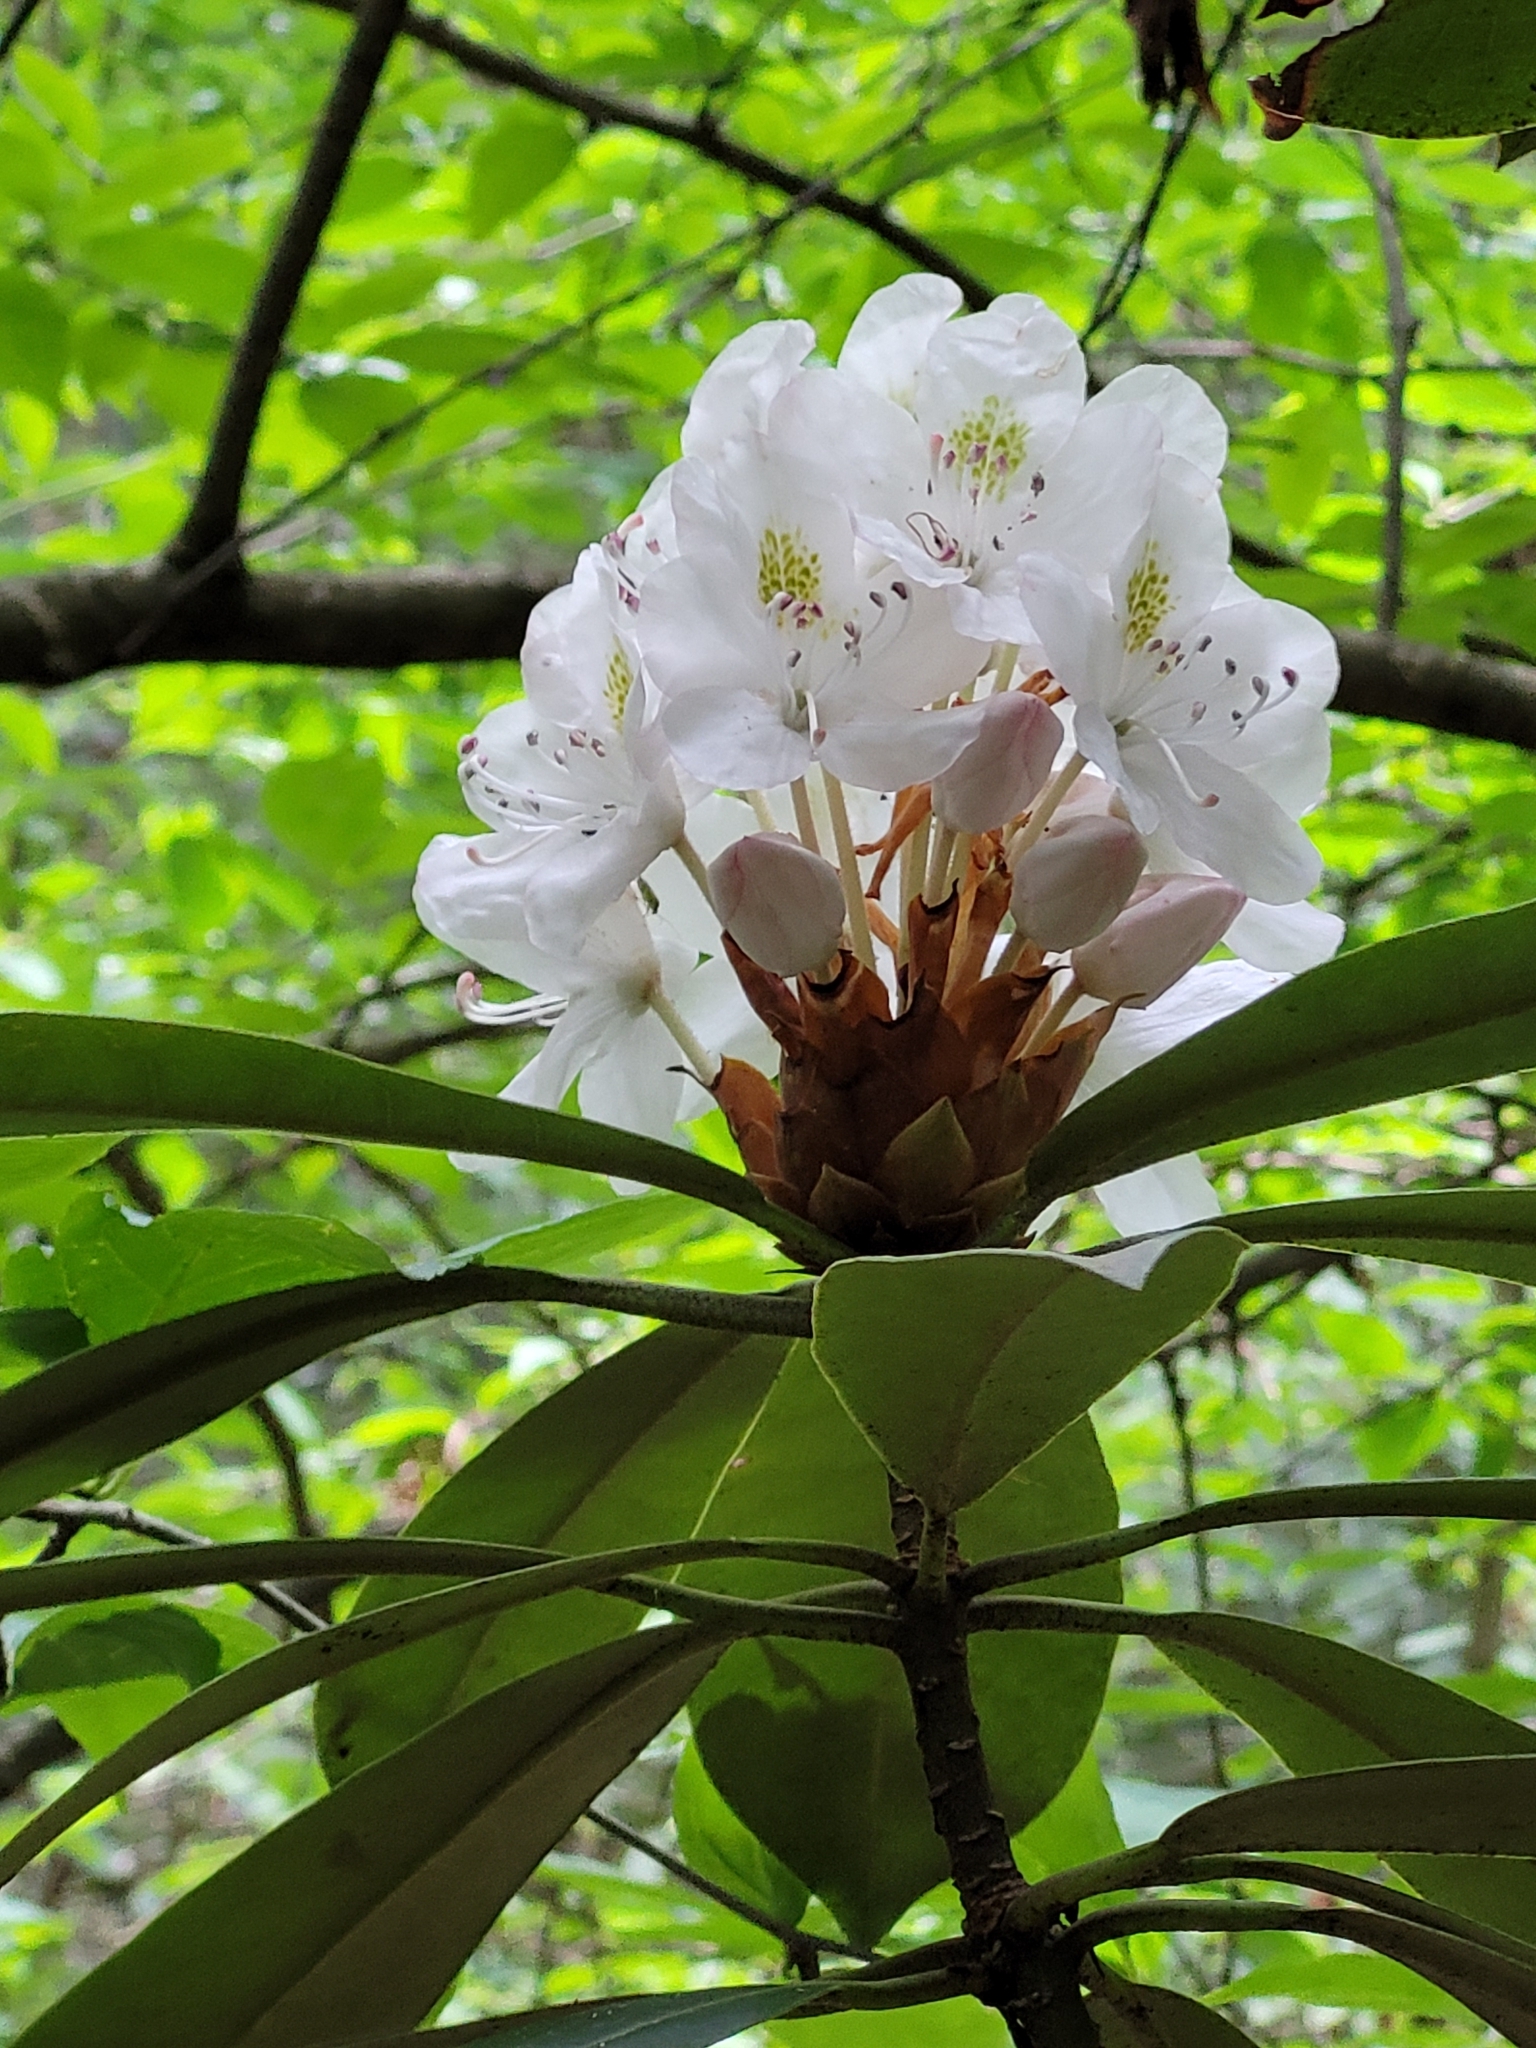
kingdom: Plantae
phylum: Tracheophyta
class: Magnoliopsida
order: Ericales
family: Ericaceae
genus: Rhododendron
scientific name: Rhododendron maximum
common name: Great rhododendron
